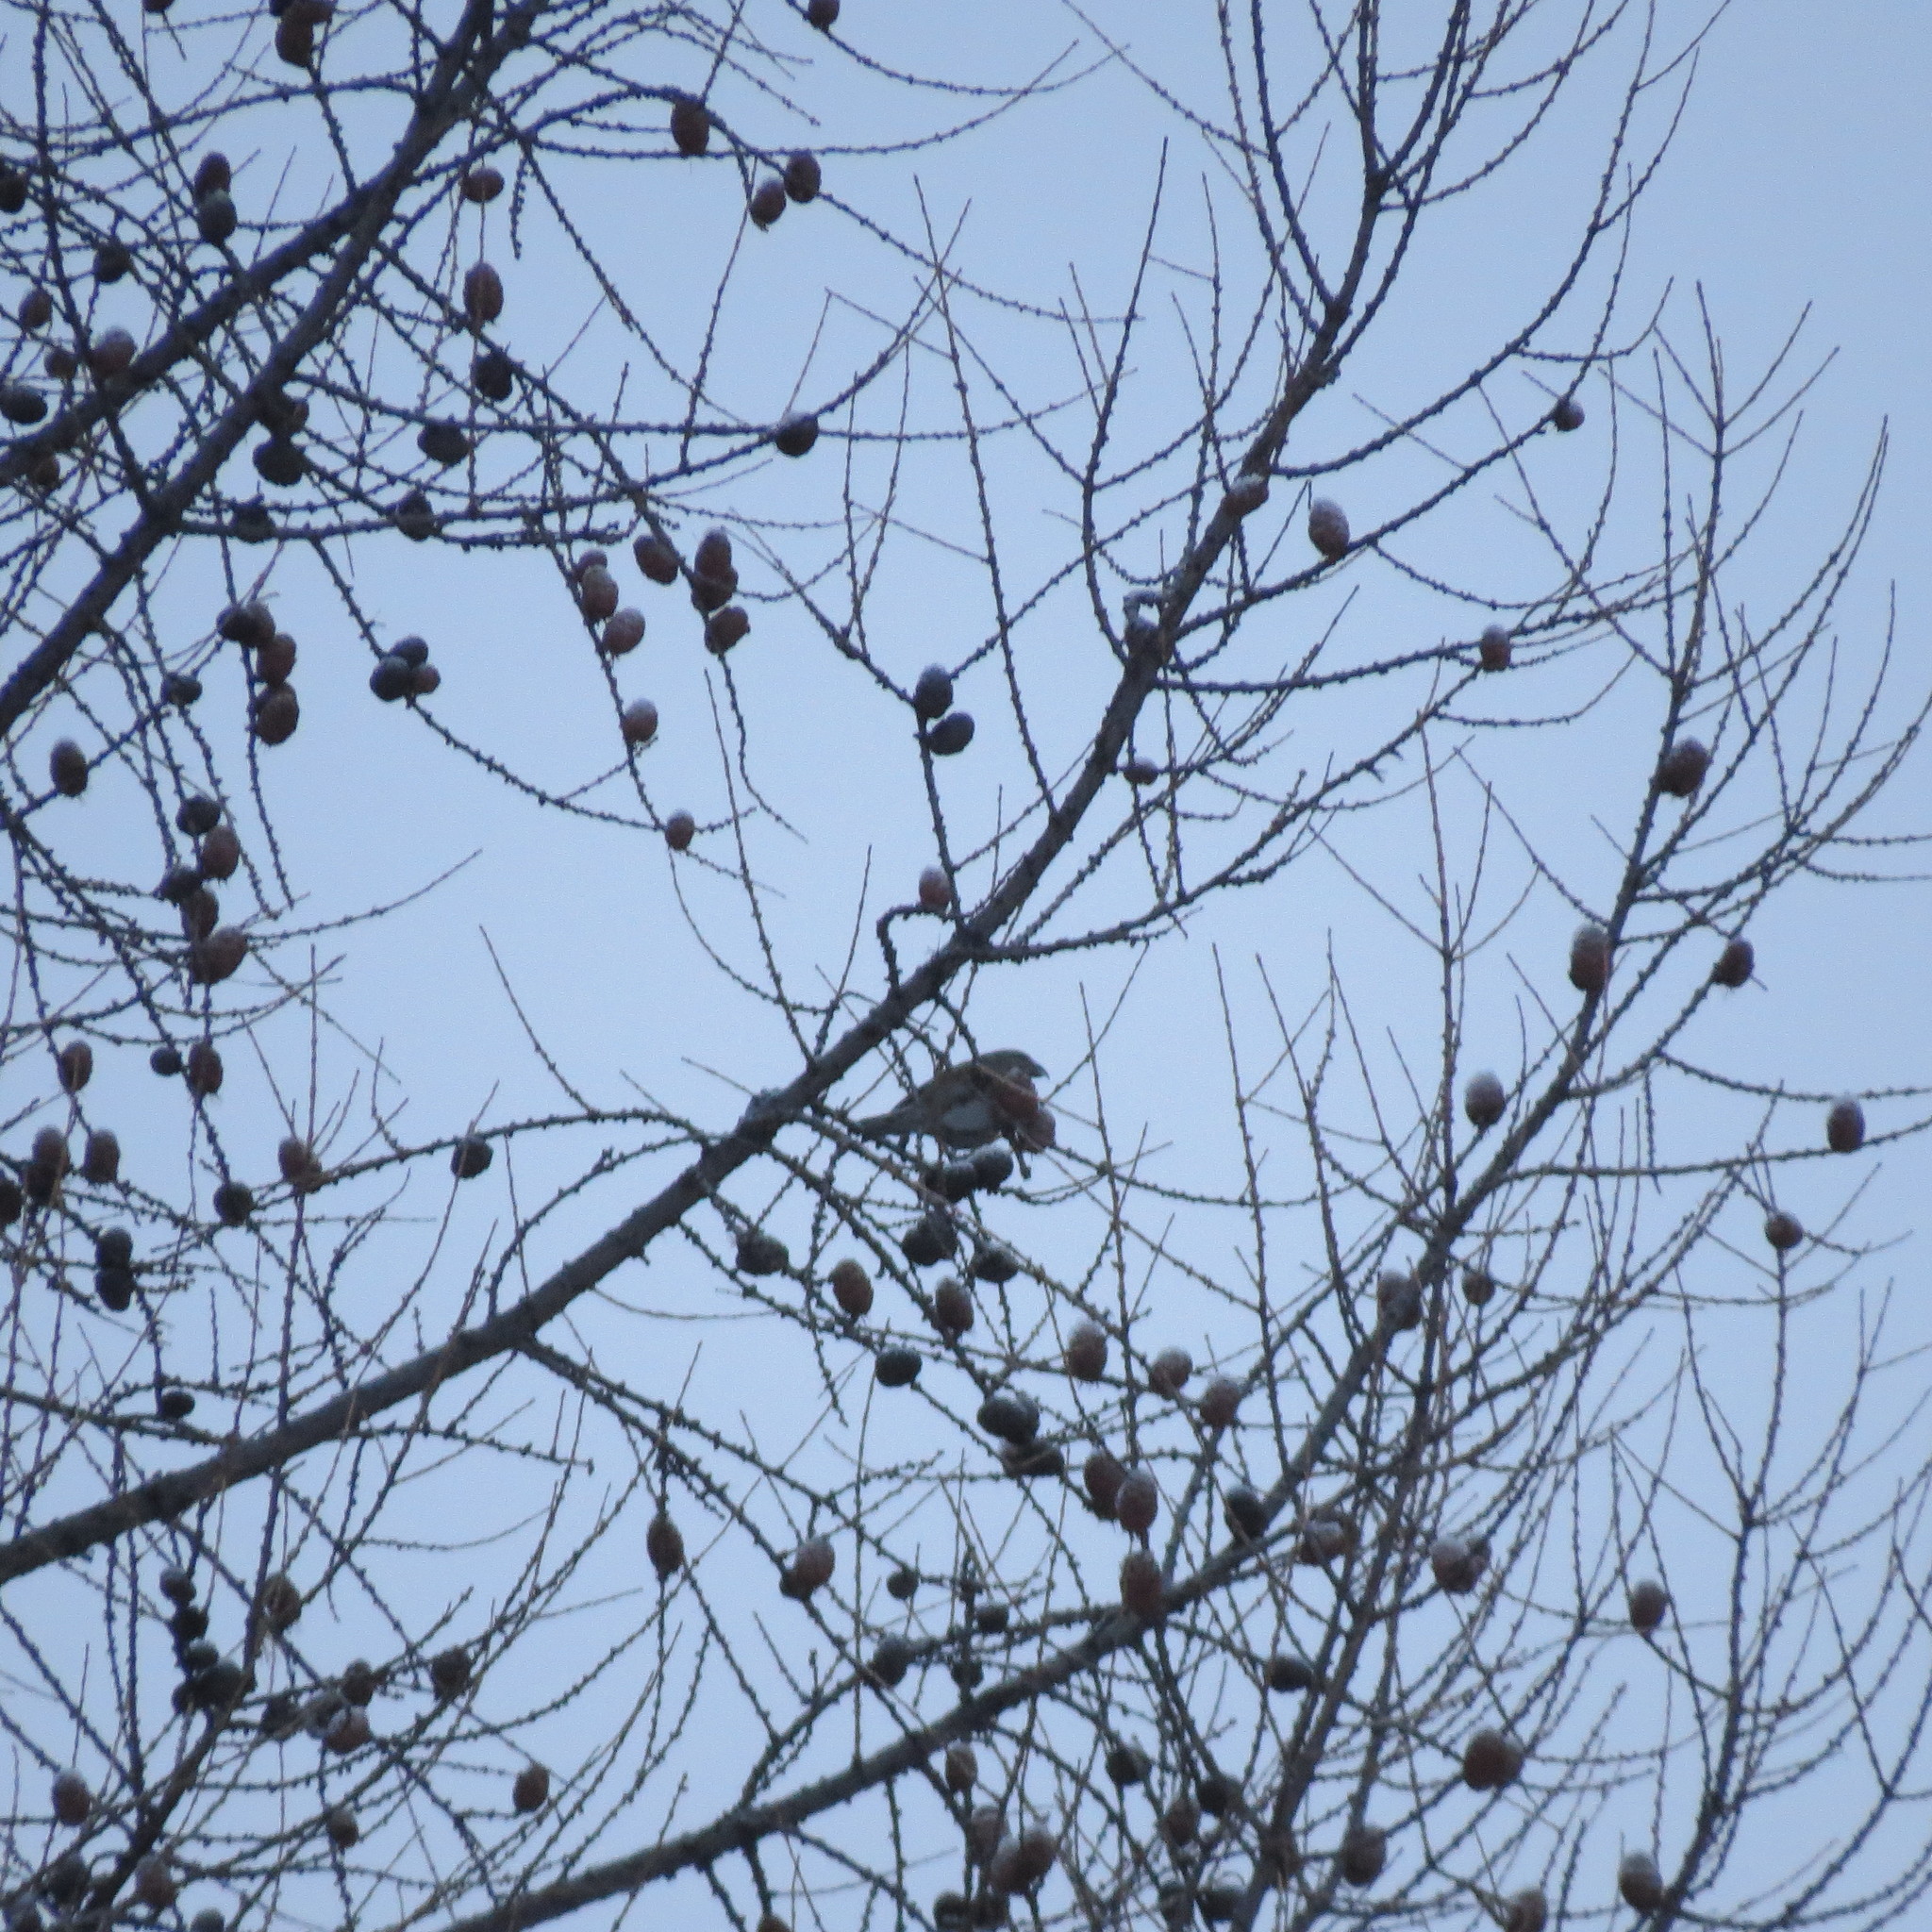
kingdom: Animalia
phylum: Chordata
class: Aves
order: Passeriformes
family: Fringillidae
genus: Loxia
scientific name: Loxia curvirostra
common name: Red crossbill
